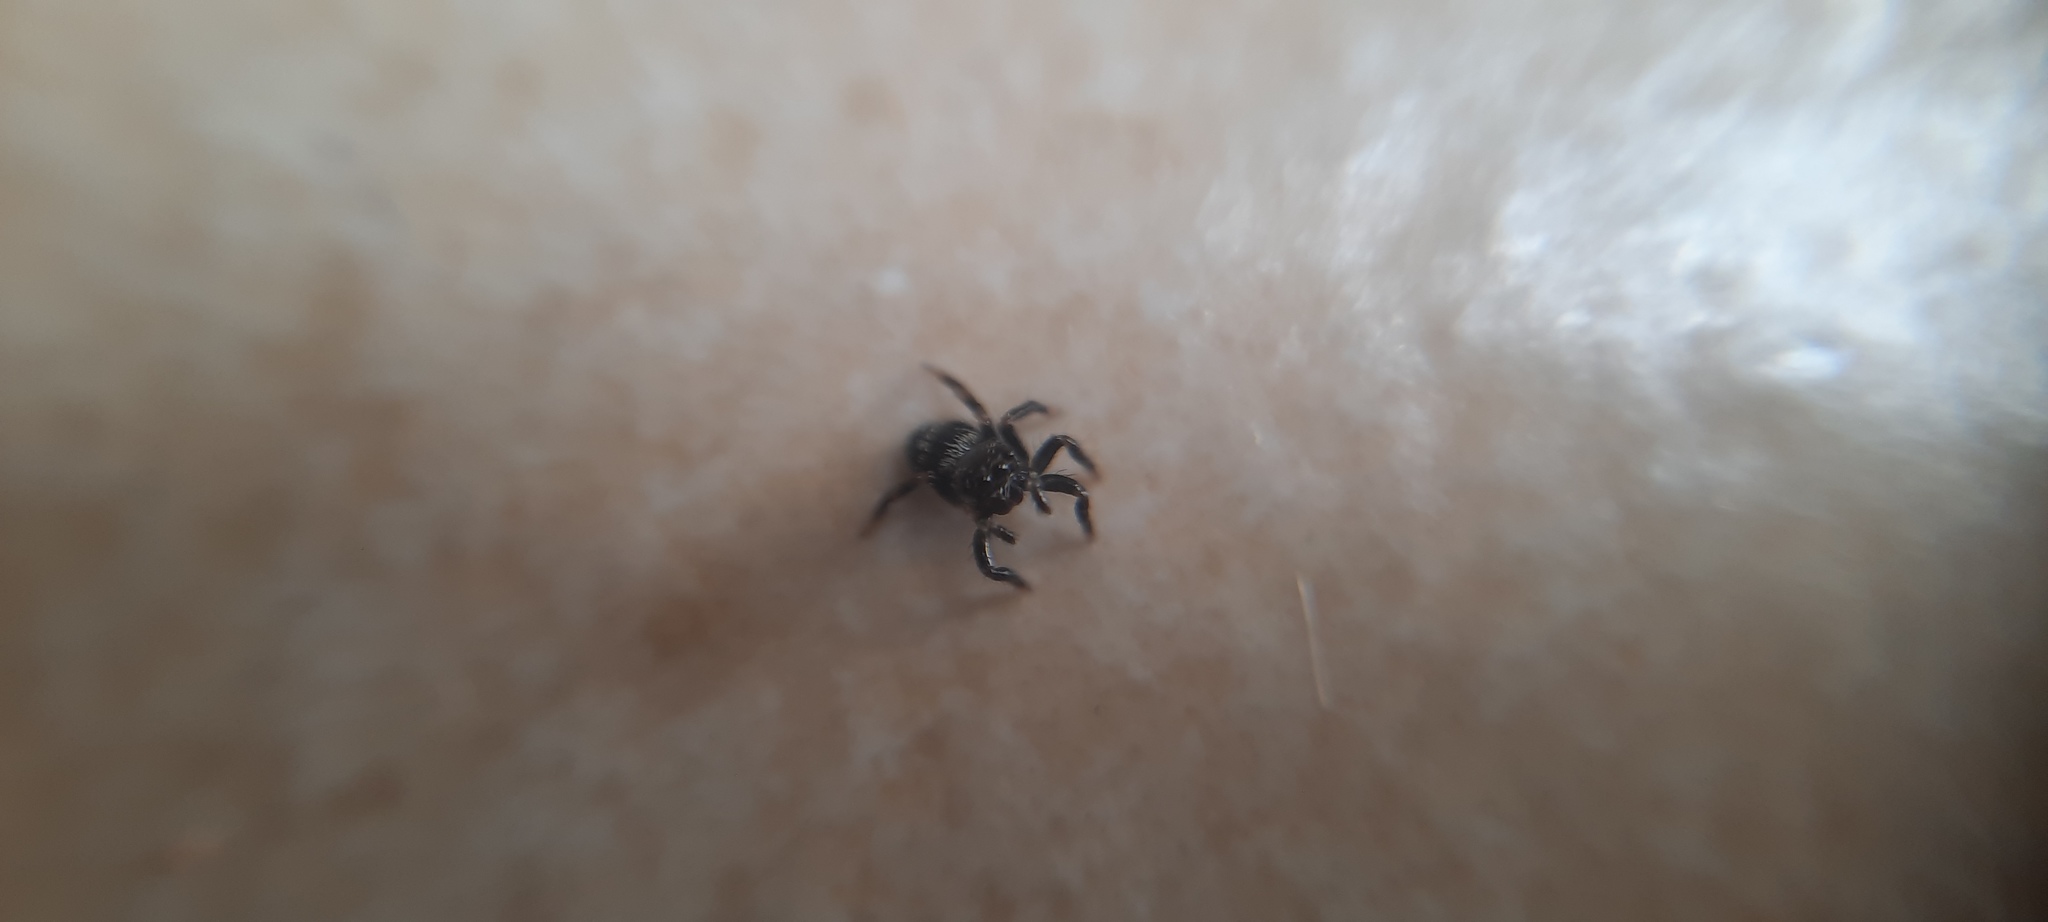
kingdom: Animalia
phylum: Arthropoda
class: Arachnida
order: Araneae
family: Salticidae
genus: Corythalia
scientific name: Corythalia conferta
